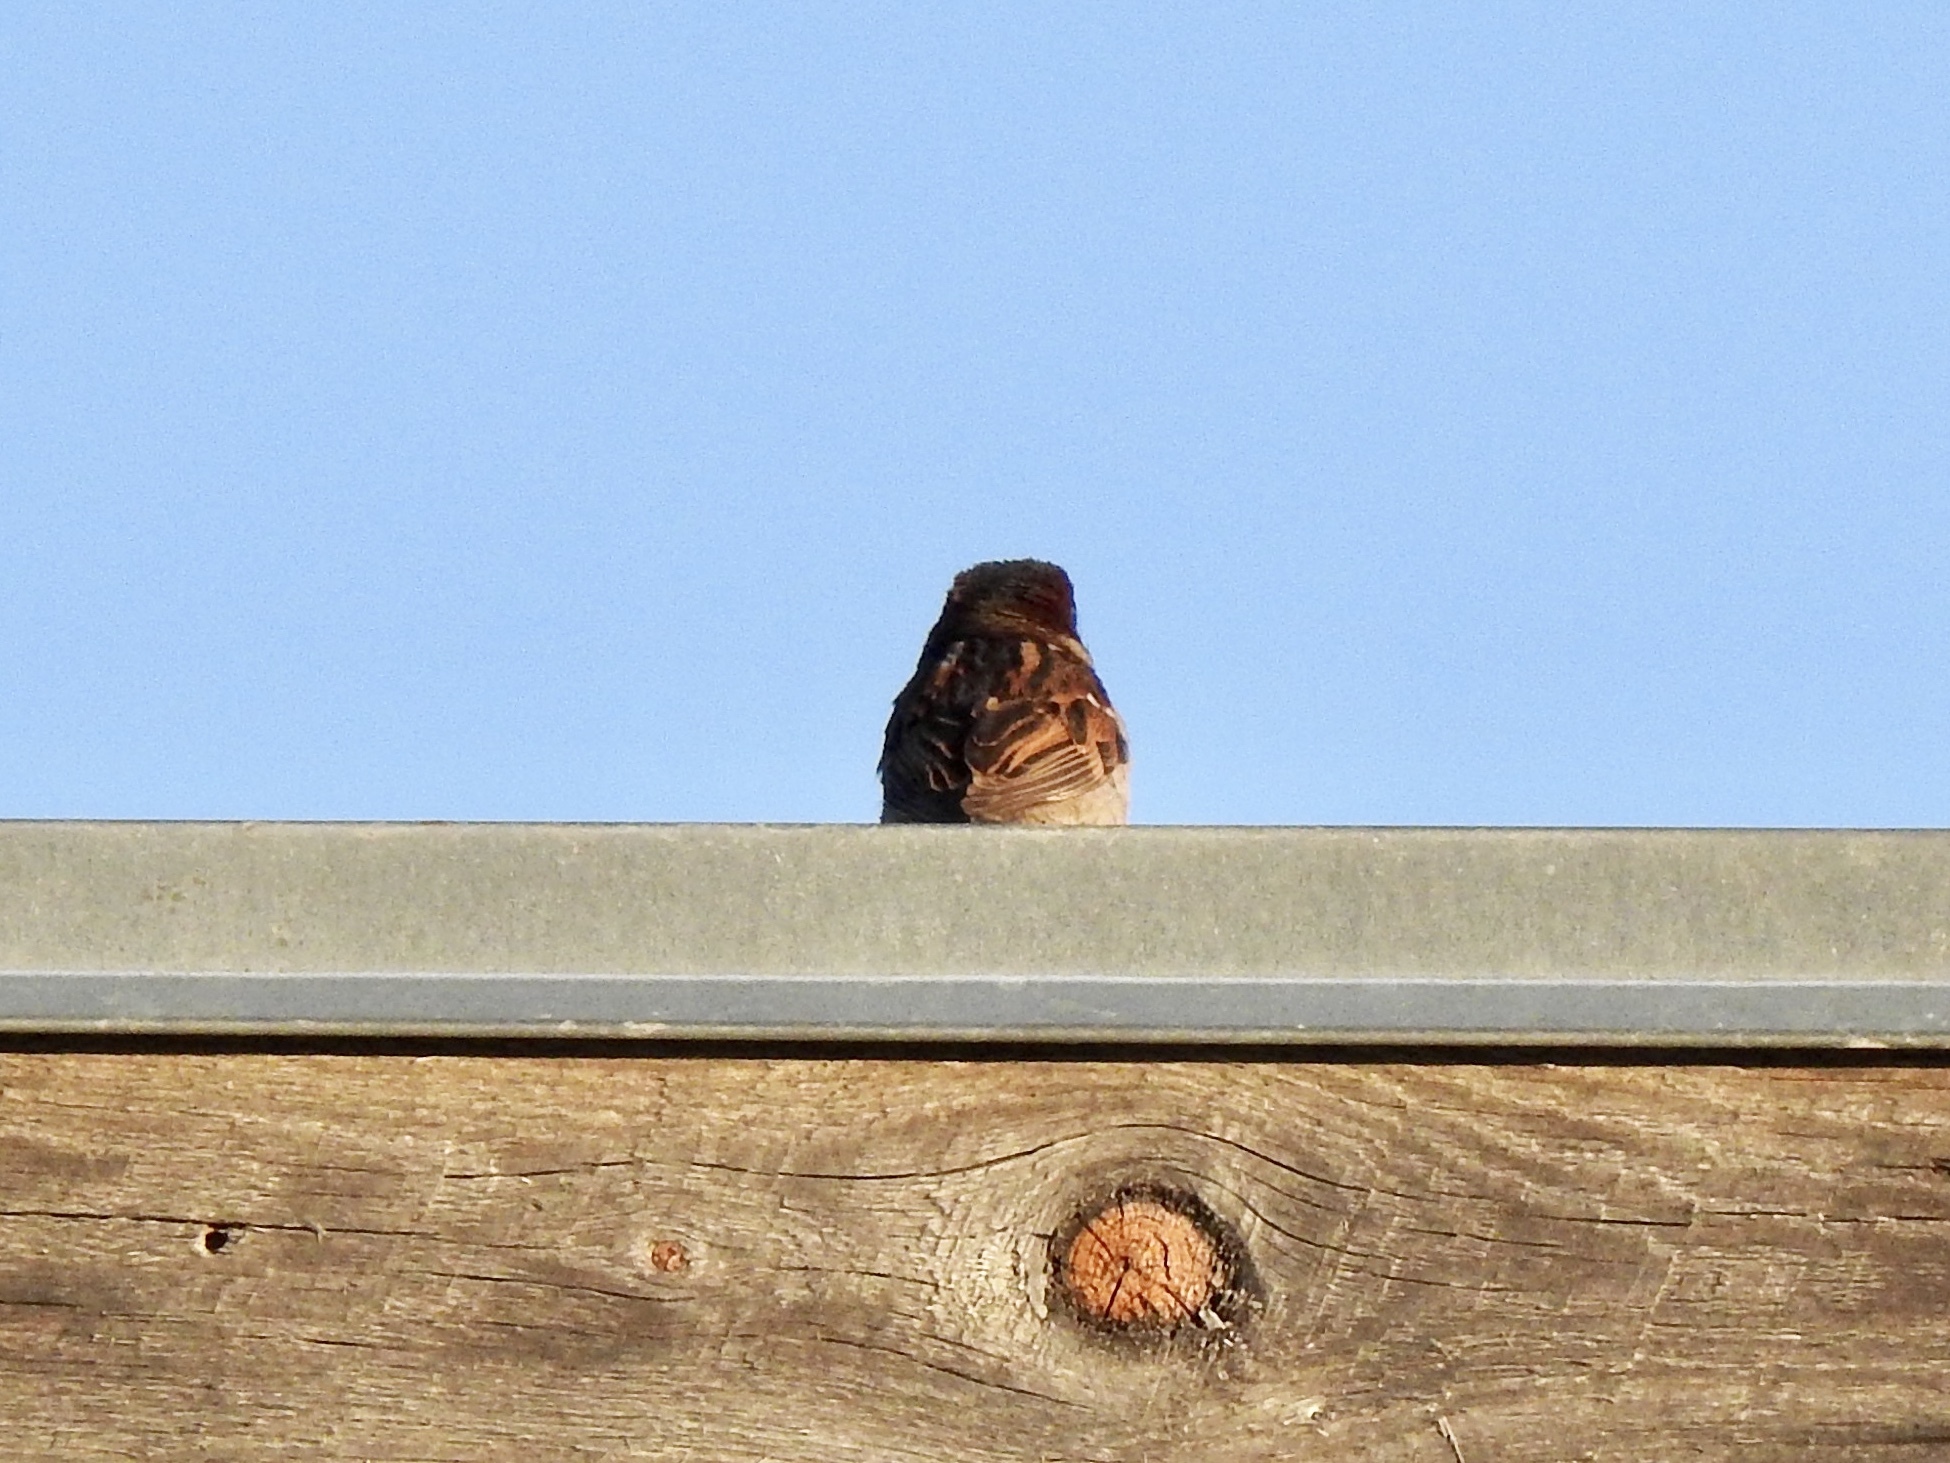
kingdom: Animalia
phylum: Chordata
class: Aves
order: Passeriformes
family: Passeridae
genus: Passer
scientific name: Passer domesticus
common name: House sparrow
